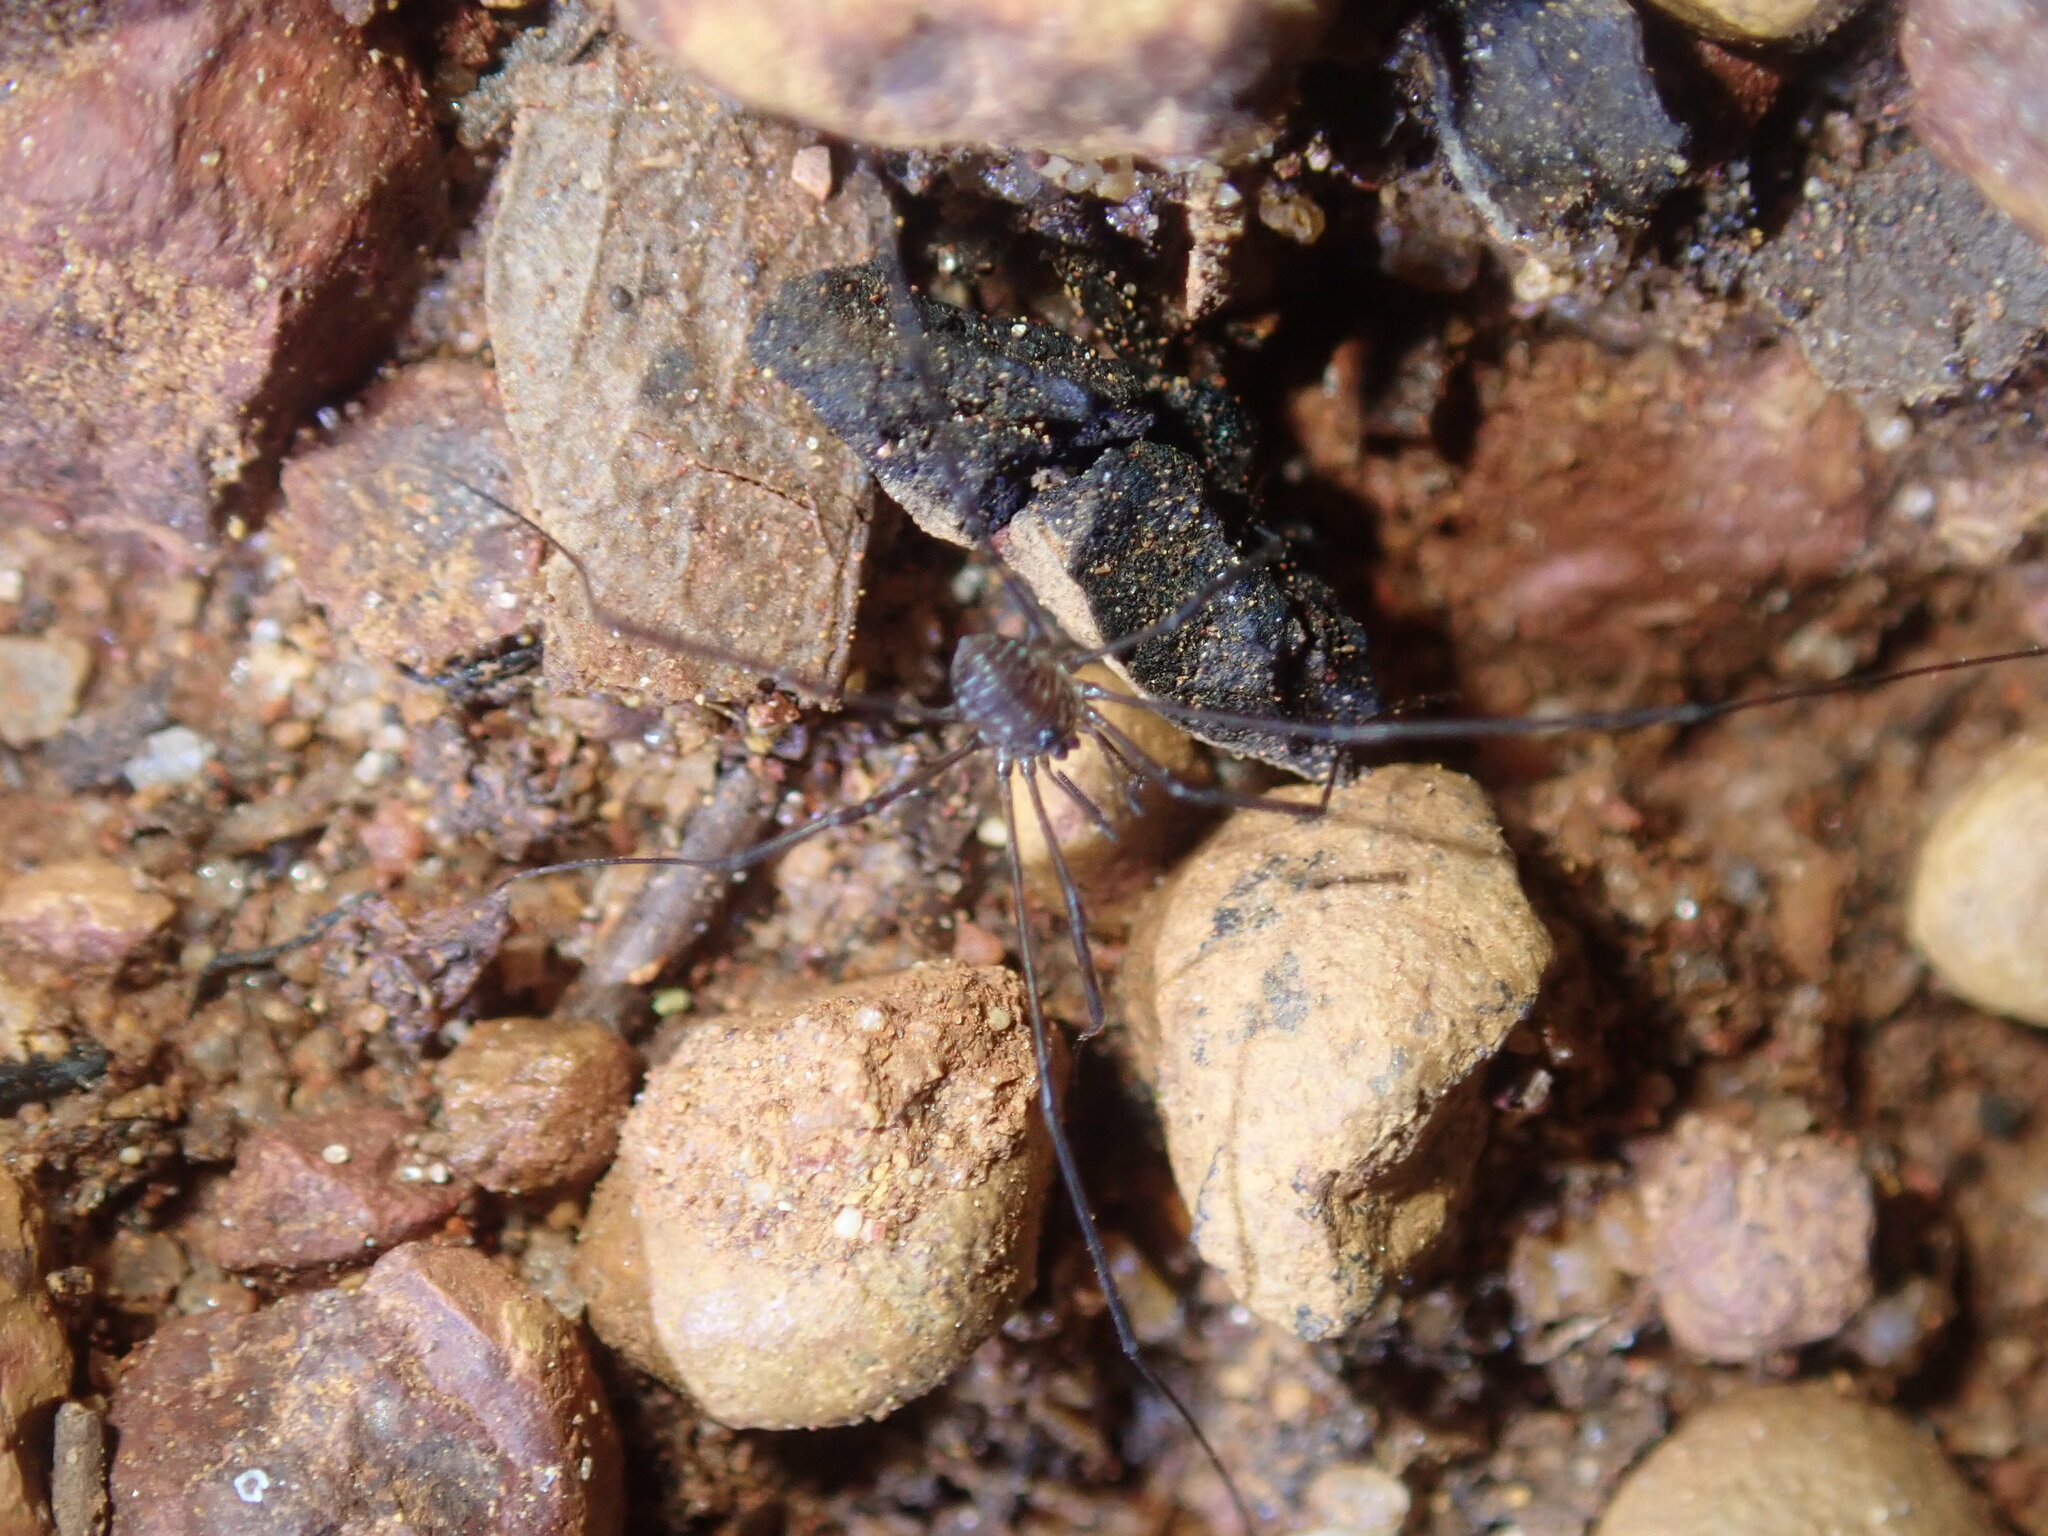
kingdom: Animalia
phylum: Arthropoda
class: Arachnida
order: Opiliones
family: Neopilionidae
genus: Ballarra
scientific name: Ballarra longipalpus
